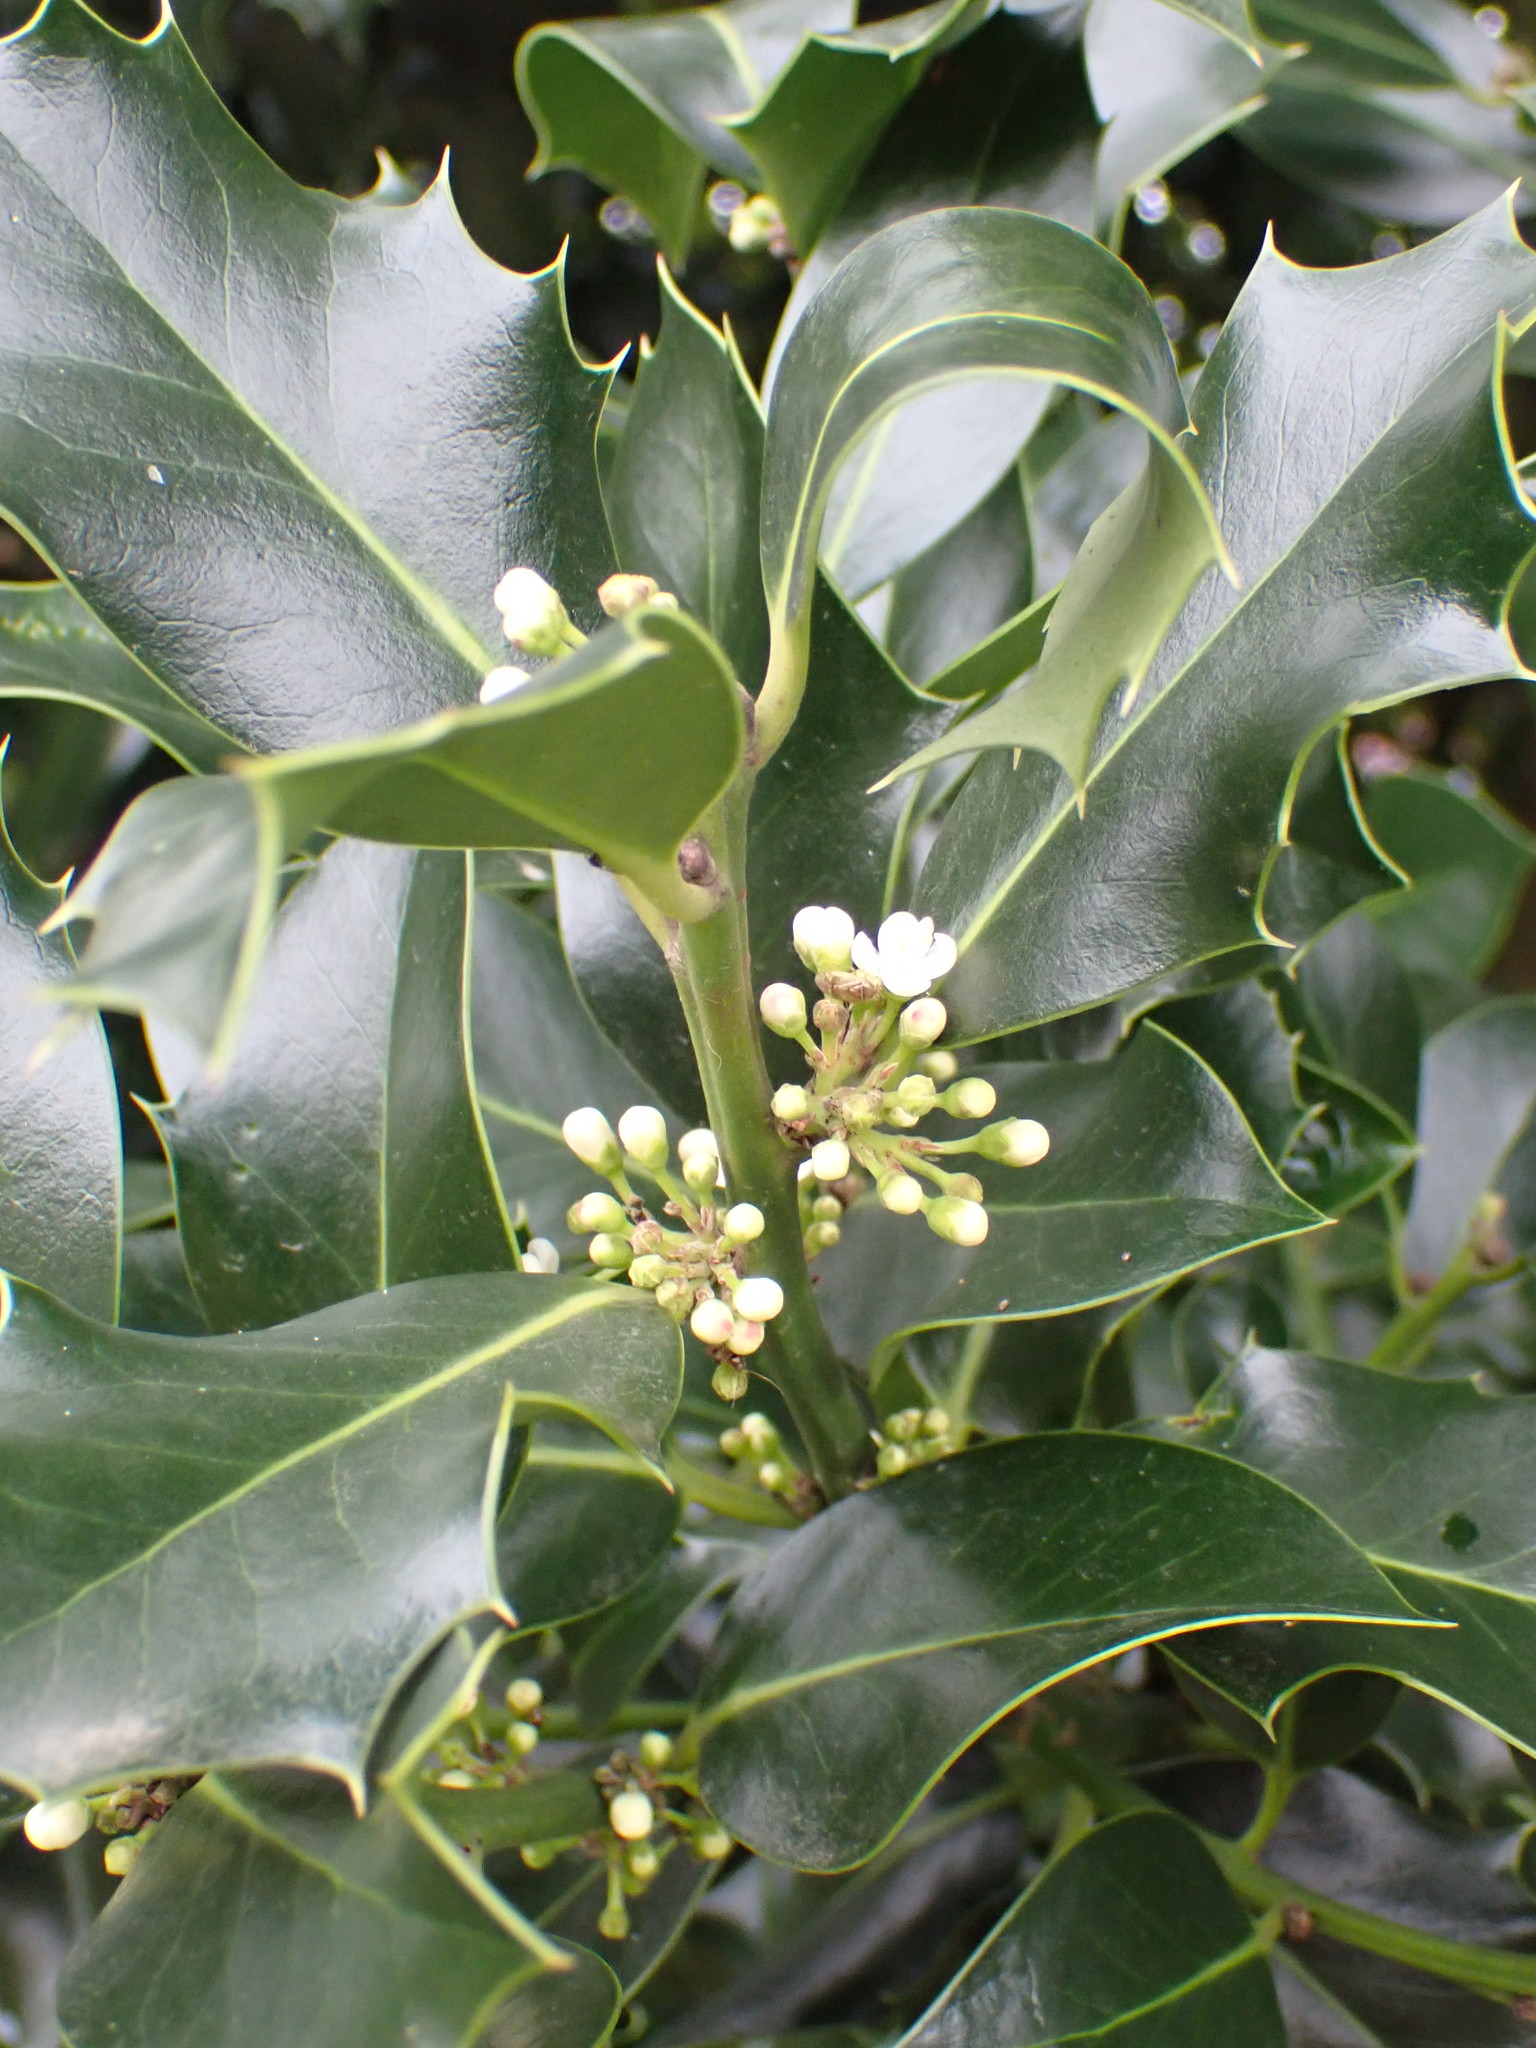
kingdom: Plantae
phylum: Tracheophyta
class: Magnoliopsida
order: Aquifoliales
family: Aquifoliaceae
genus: Ilex
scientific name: Ilex aquifolium
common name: English holly
